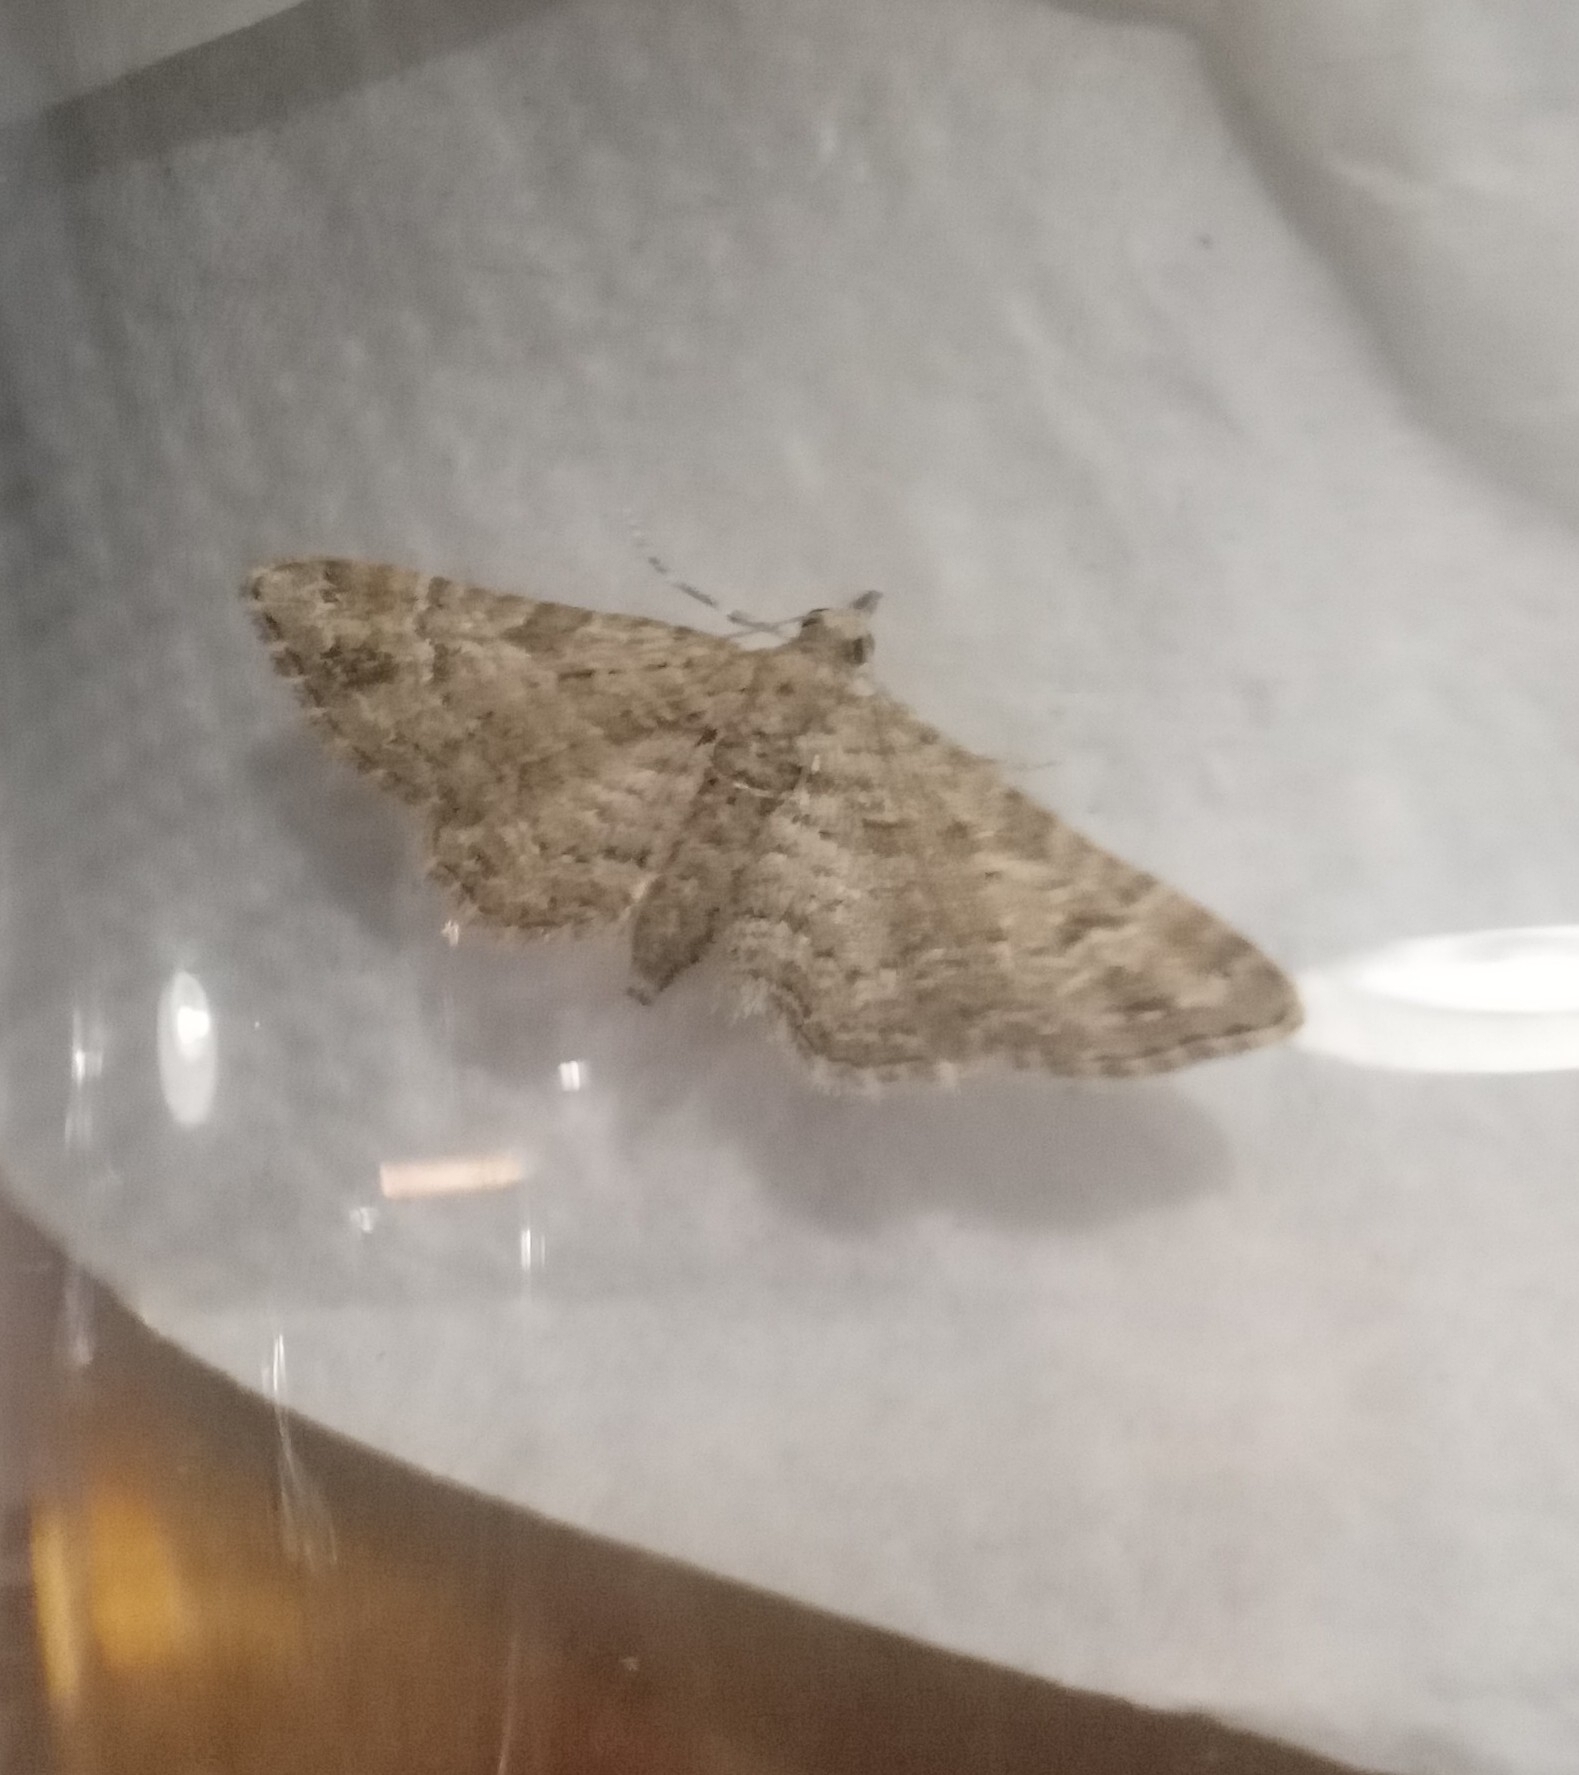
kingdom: Animalia
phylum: Arthropoda
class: Insecta
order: Lepidoptera
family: Geometridae
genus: Gymnoscelis
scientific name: Gymnoscelis rufifasciata
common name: Double-striped pug
